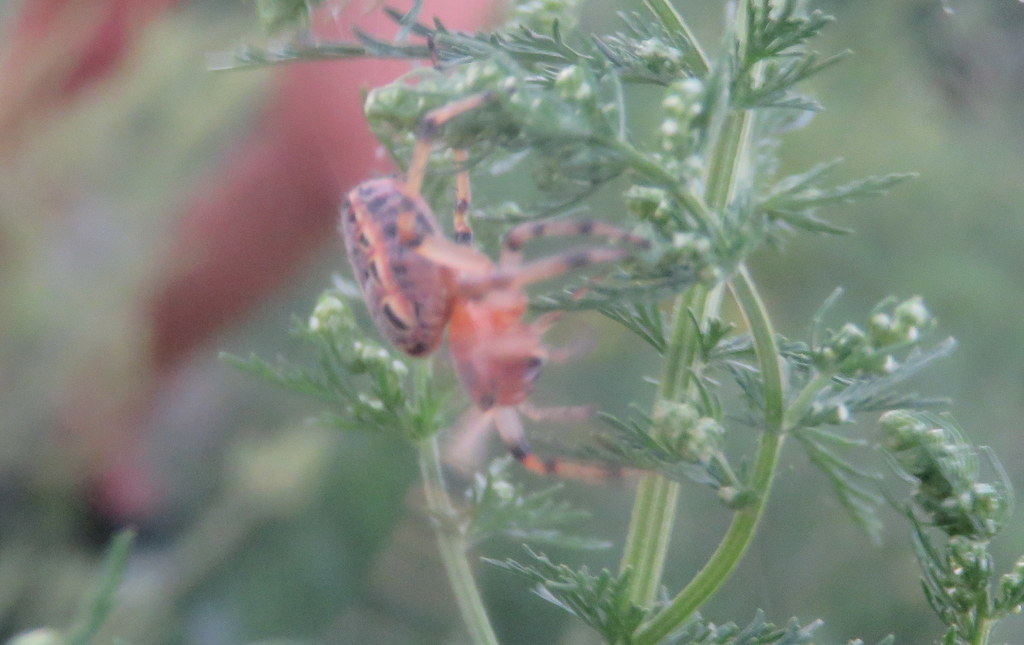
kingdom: Animalia
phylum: Arthropoda
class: Arachnida
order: Araneae
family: Araneidae
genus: Alpaida
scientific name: Alpaida veniliae
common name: Orb weavers
